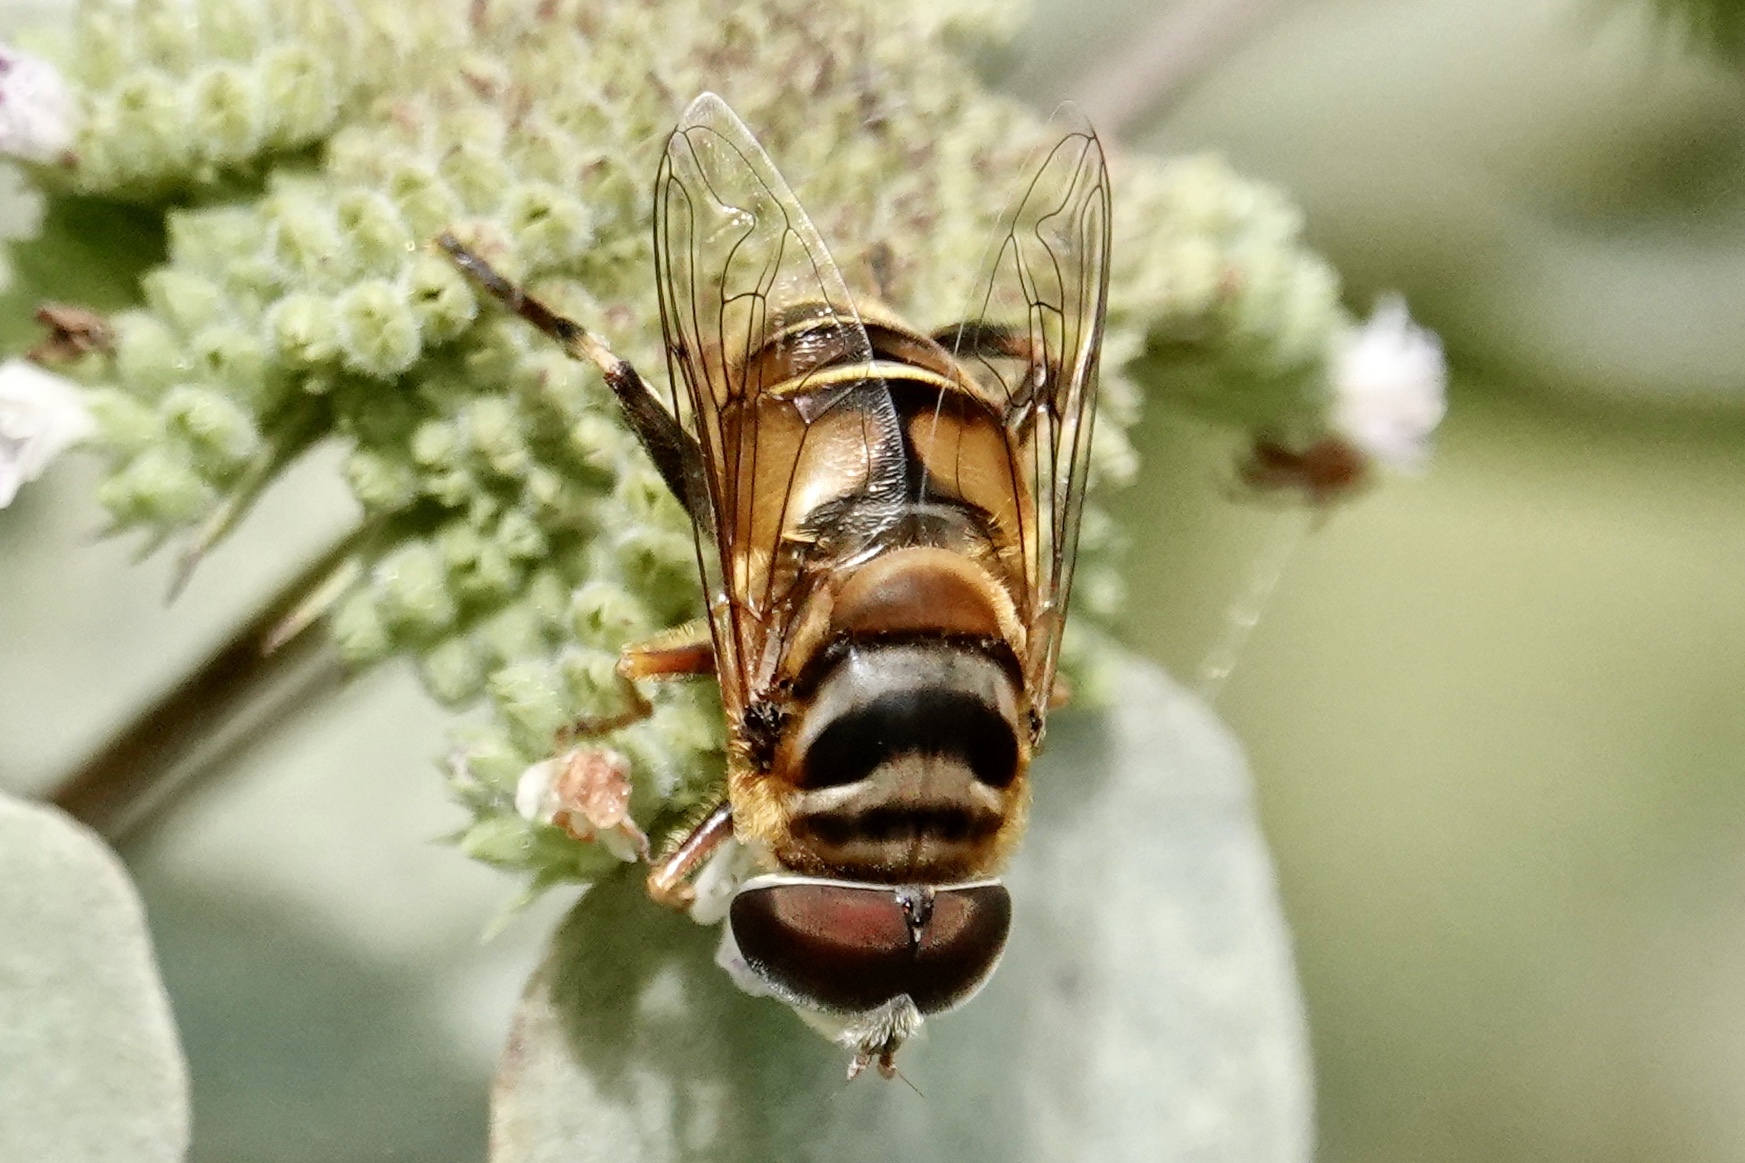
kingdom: Animalia
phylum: Arthropoda
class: Insecta
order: Diptera
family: Syrphidae
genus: Palpada
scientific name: Palpada vinetorum
